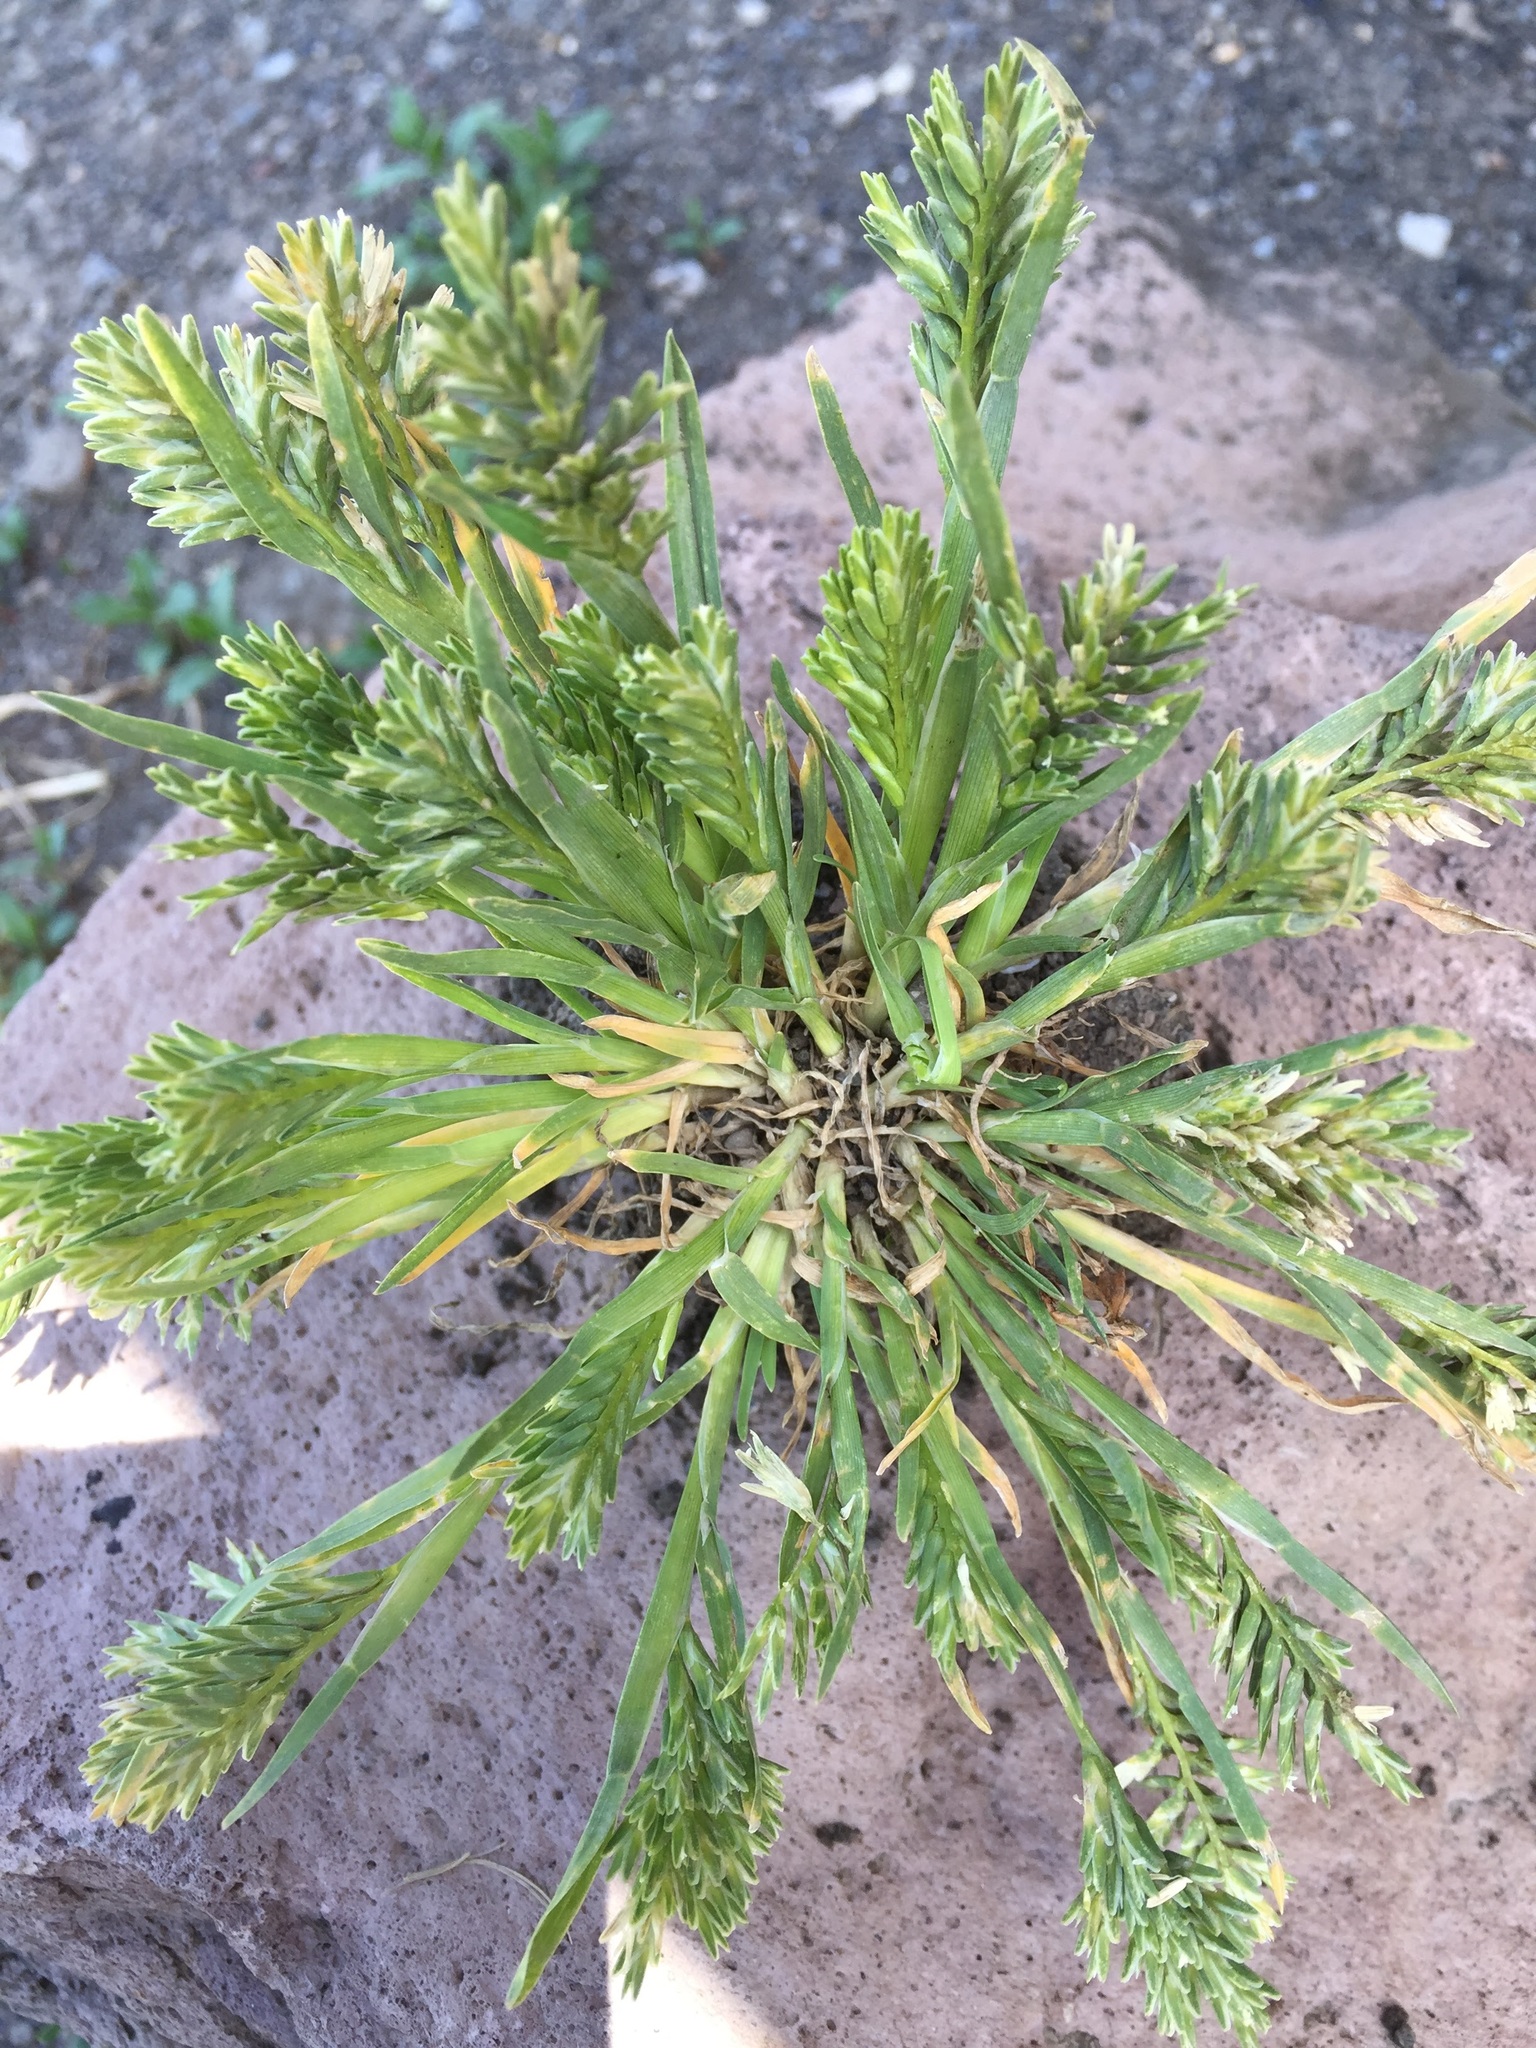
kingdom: Plantae
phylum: Tracheophyta
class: Liliopsida
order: Poales
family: Poaceae
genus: Sclerochloa
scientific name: Sclerochloa dura
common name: Common hardgrass
